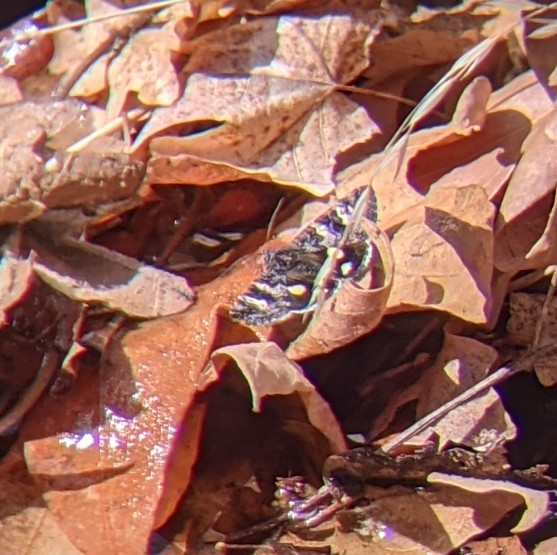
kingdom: Animalia
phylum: Arthropoda
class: Insecta
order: Lepidoptera
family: Erebidae
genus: Litocala
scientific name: Litocala sexsignata
